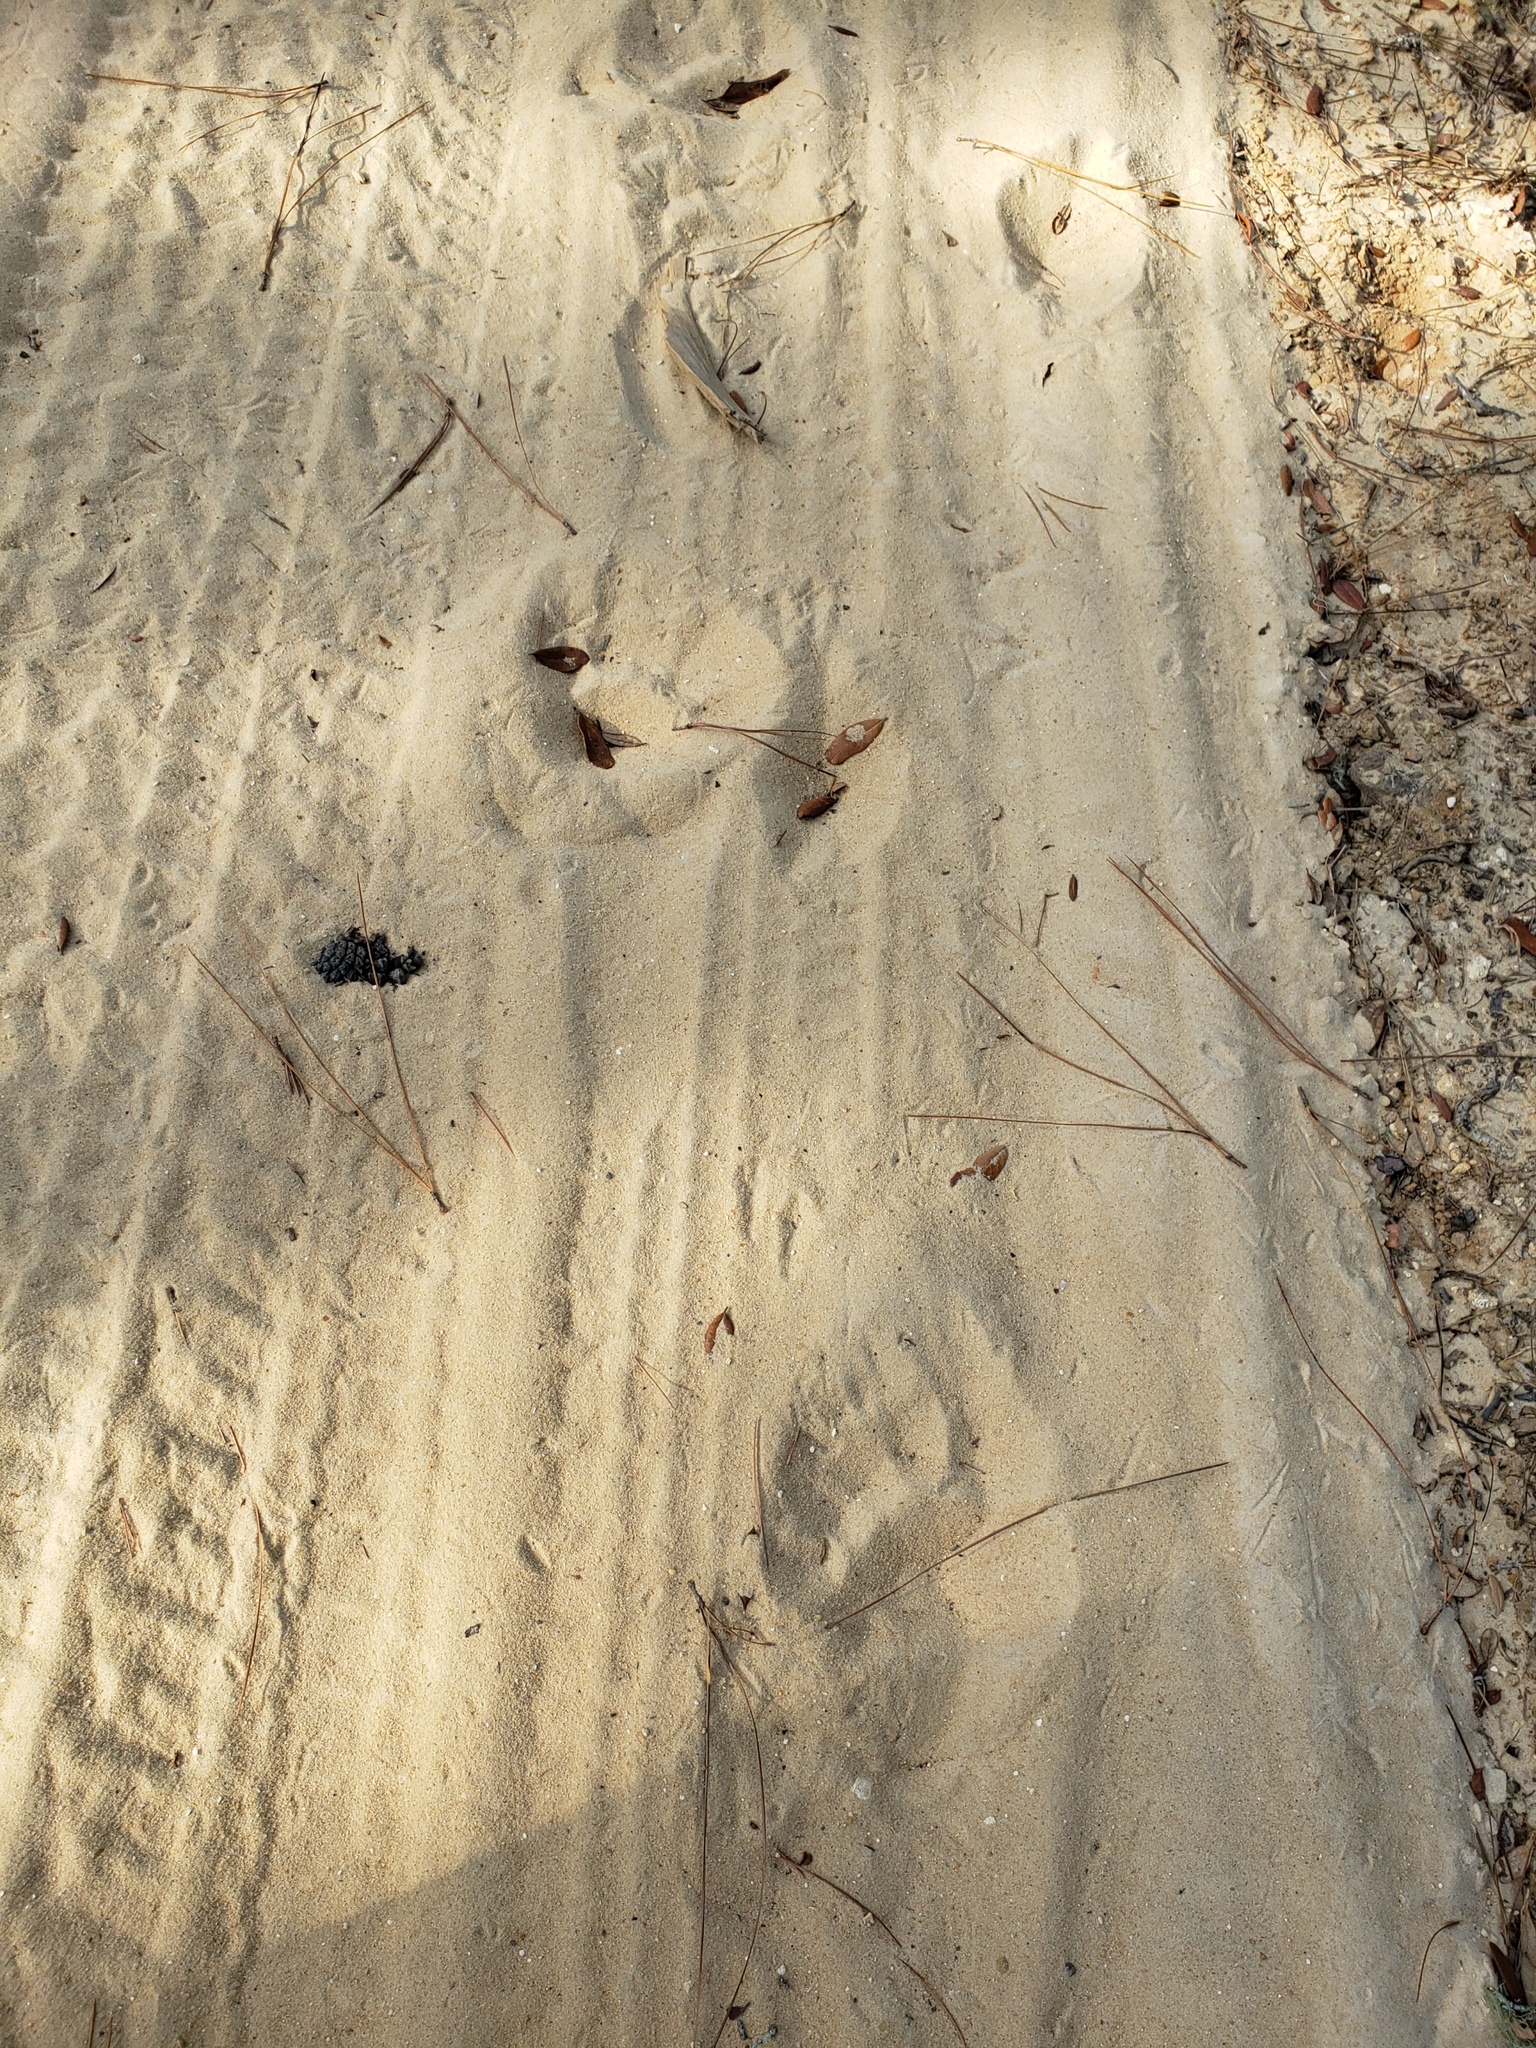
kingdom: Animalia
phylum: Chordata
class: Mammalia
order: Carnivora
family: Ursidae
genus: Ursus
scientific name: Ursus americanus
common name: American black bear
